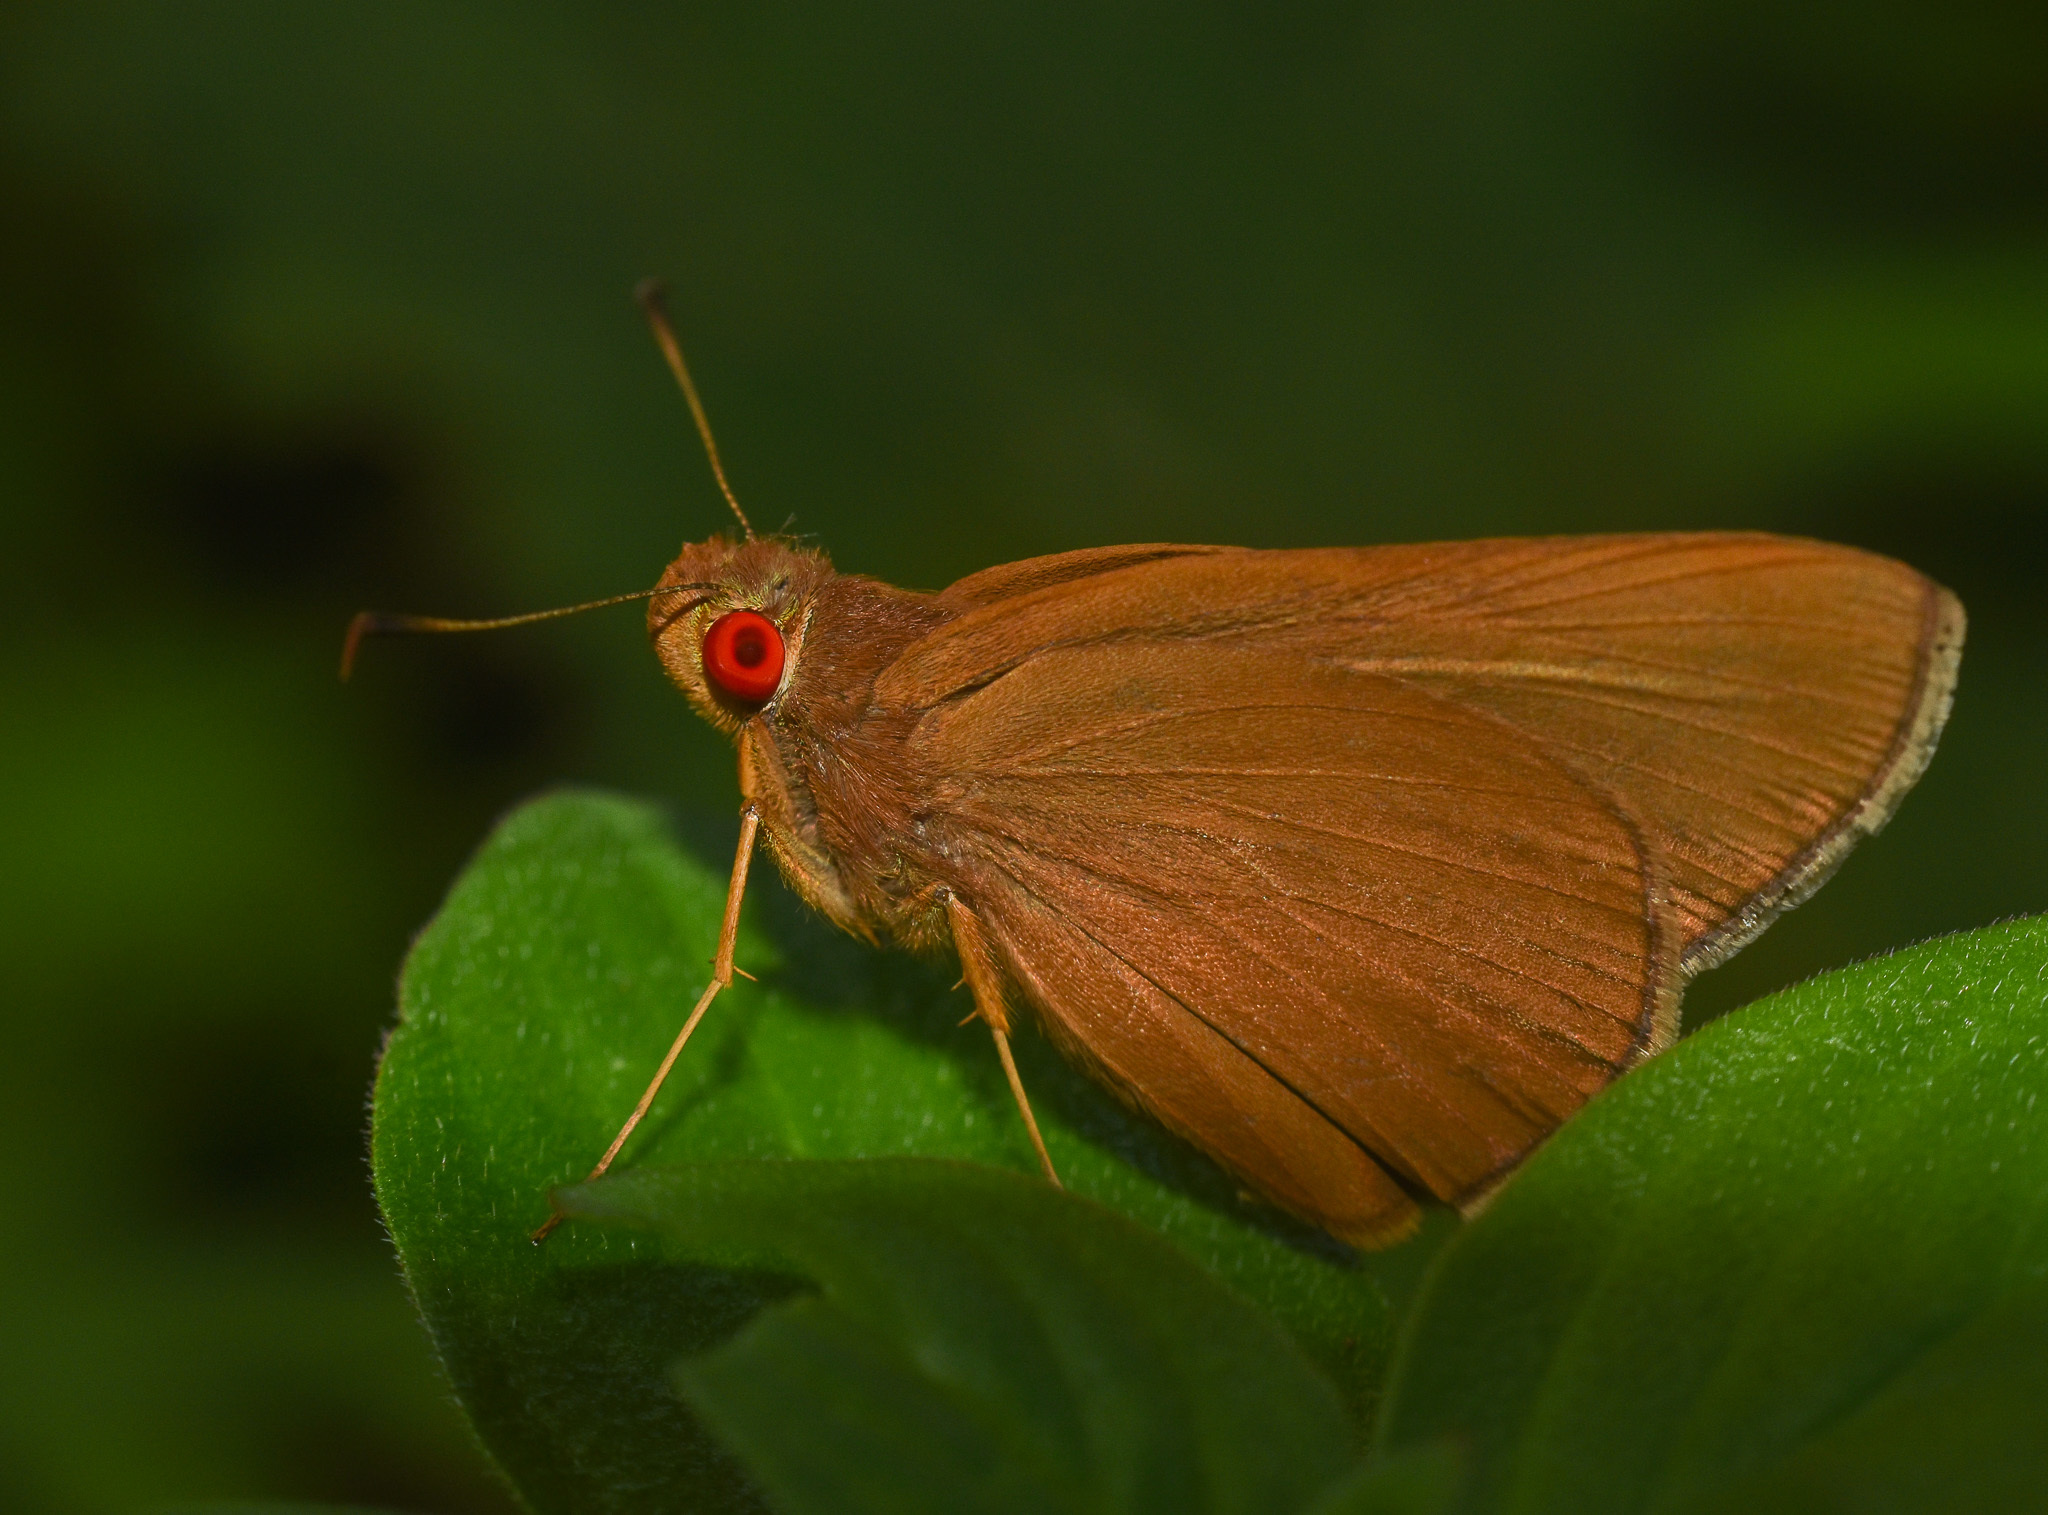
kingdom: Animalia
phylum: Arthropoda
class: Insecta
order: Lepidoptera
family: Hesperiidae
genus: Matapa
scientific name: Matapa aria
